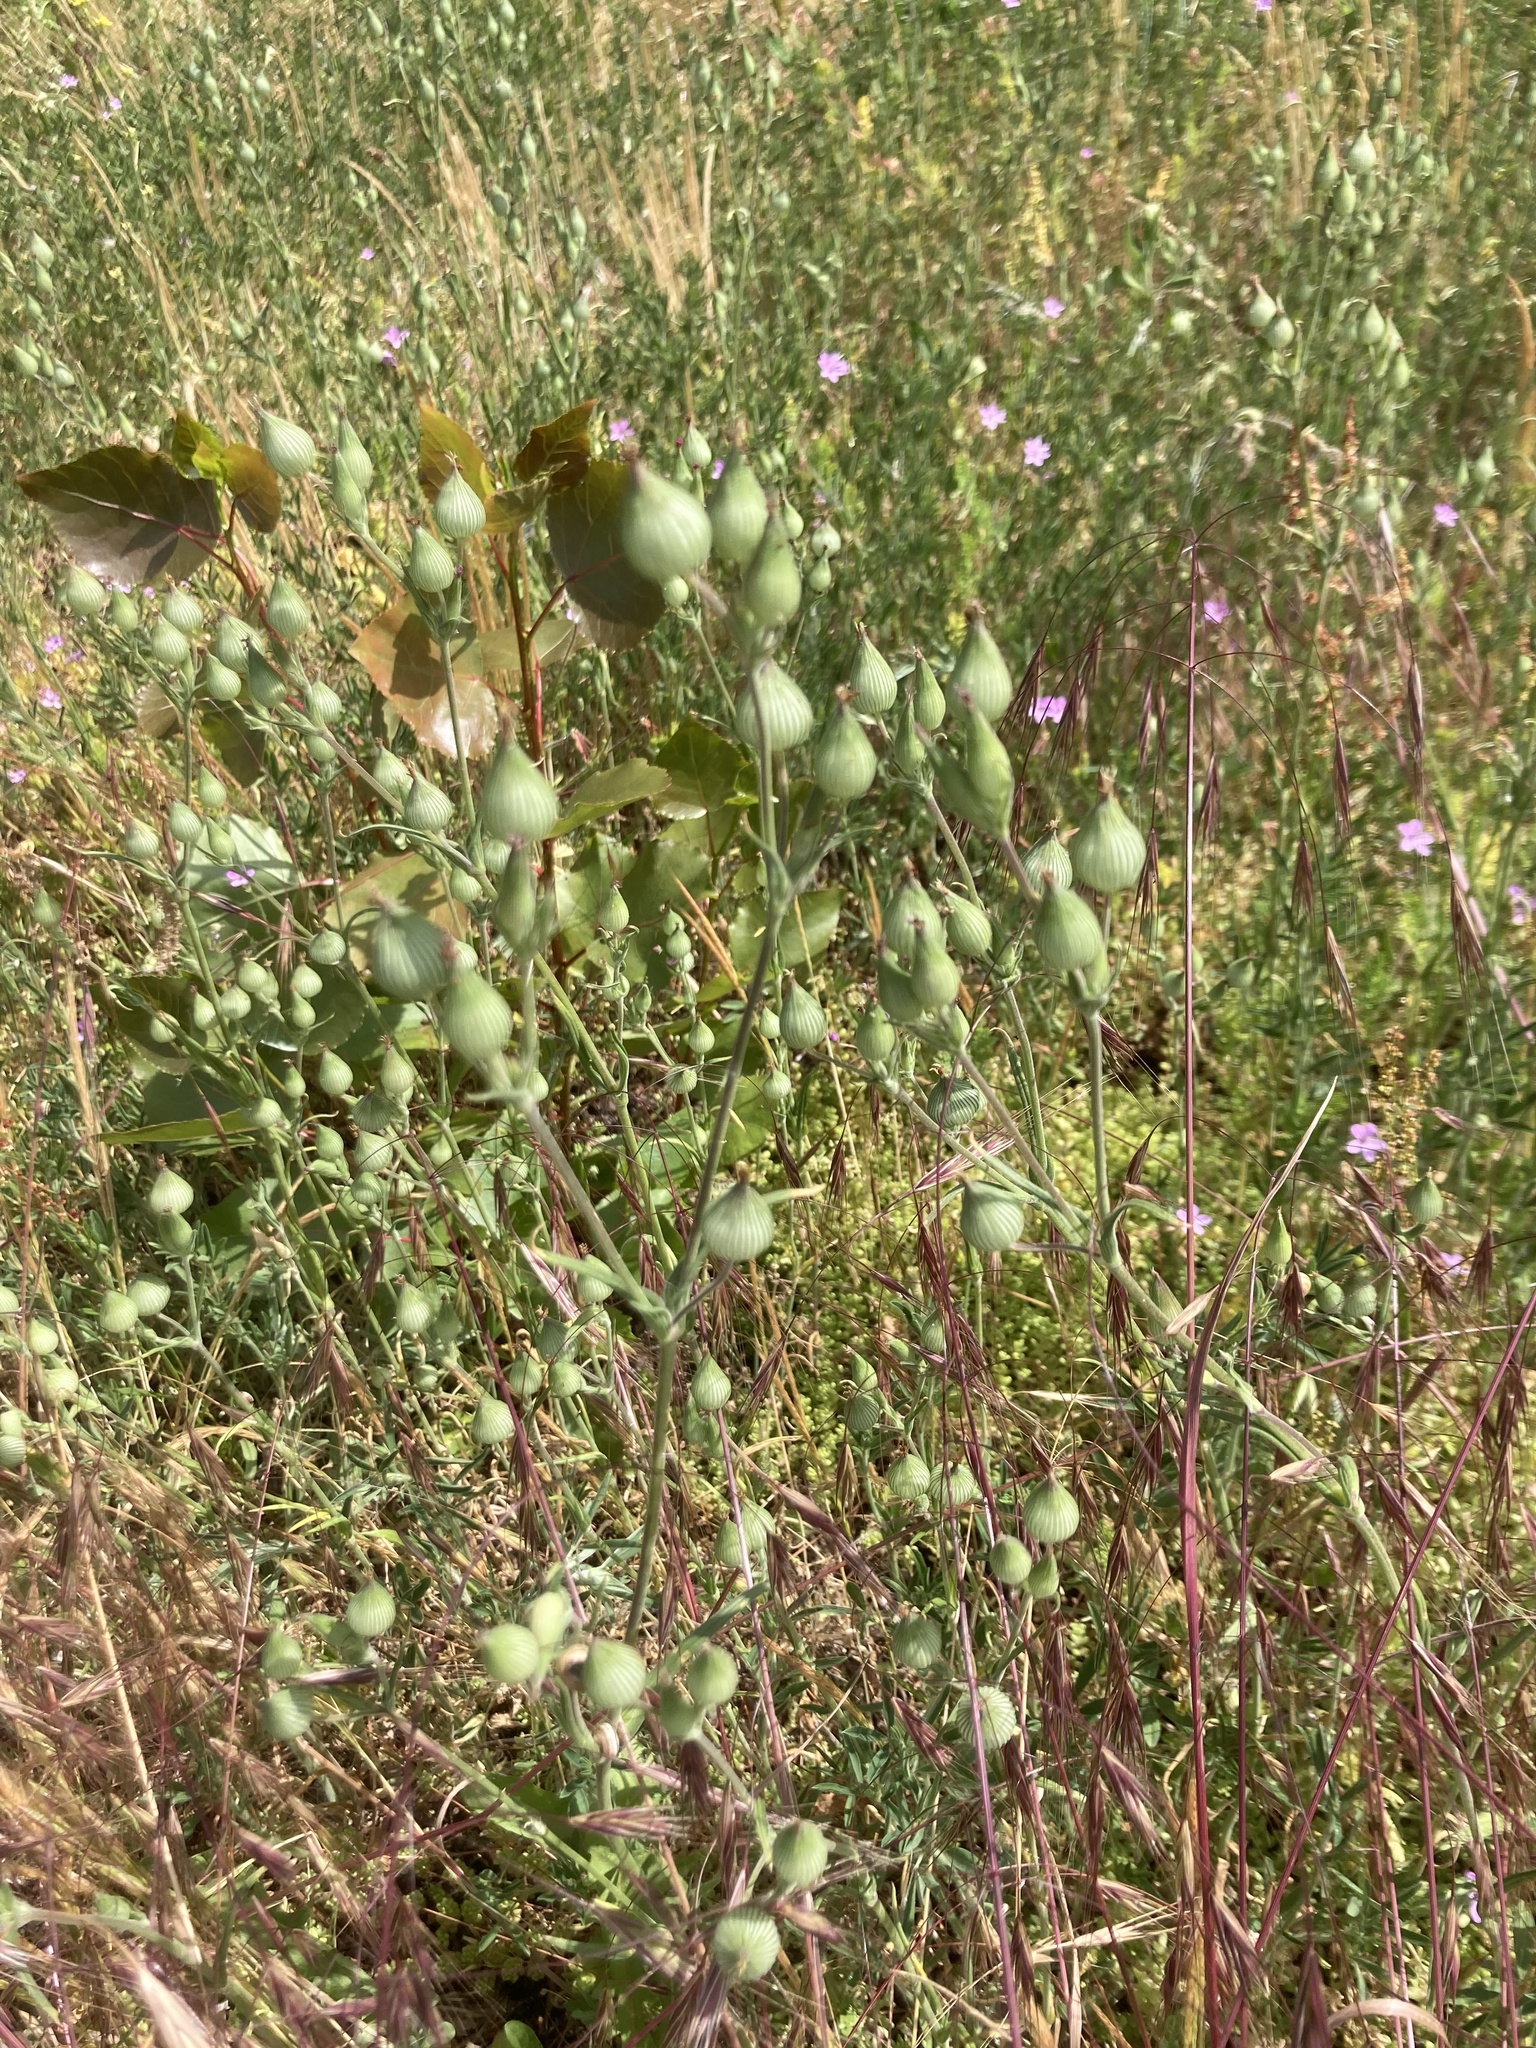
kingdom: Plantae
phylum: Tracheophyta
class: Magnoliopsida
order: Caryophyllales
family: Caryophyllaceae
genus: Silene
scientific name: Silene conica
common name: Sand catchfly
